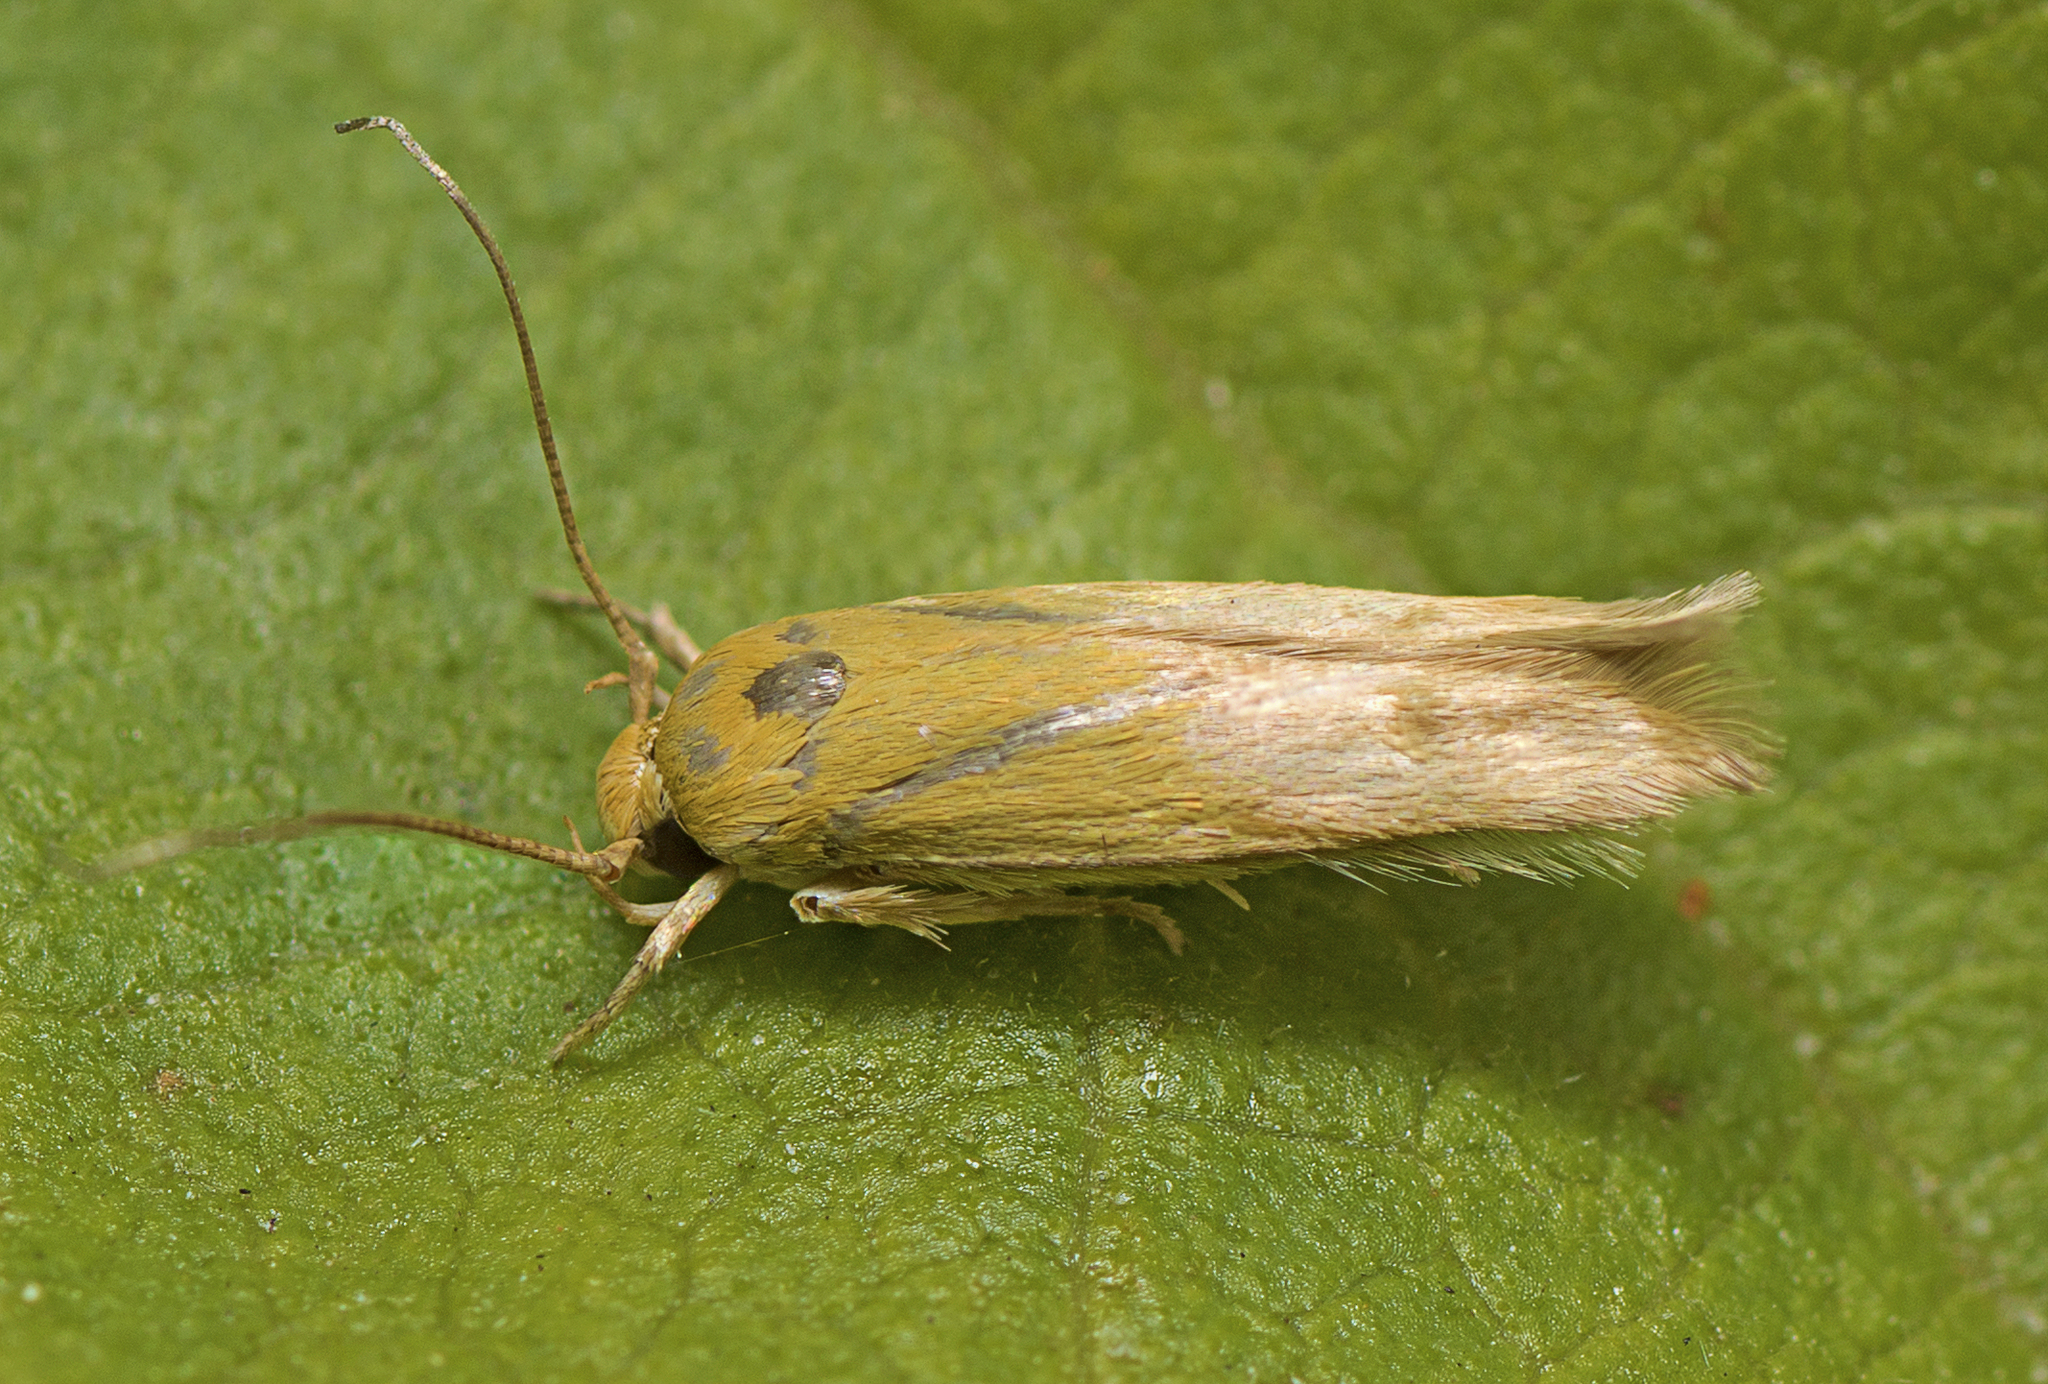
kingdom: Animalia
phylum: Arthropoda
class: Insecta
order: Lepidoptera
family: Stathmopodidae
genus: Stathmopoda
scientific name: Stathmopoda auriferella
